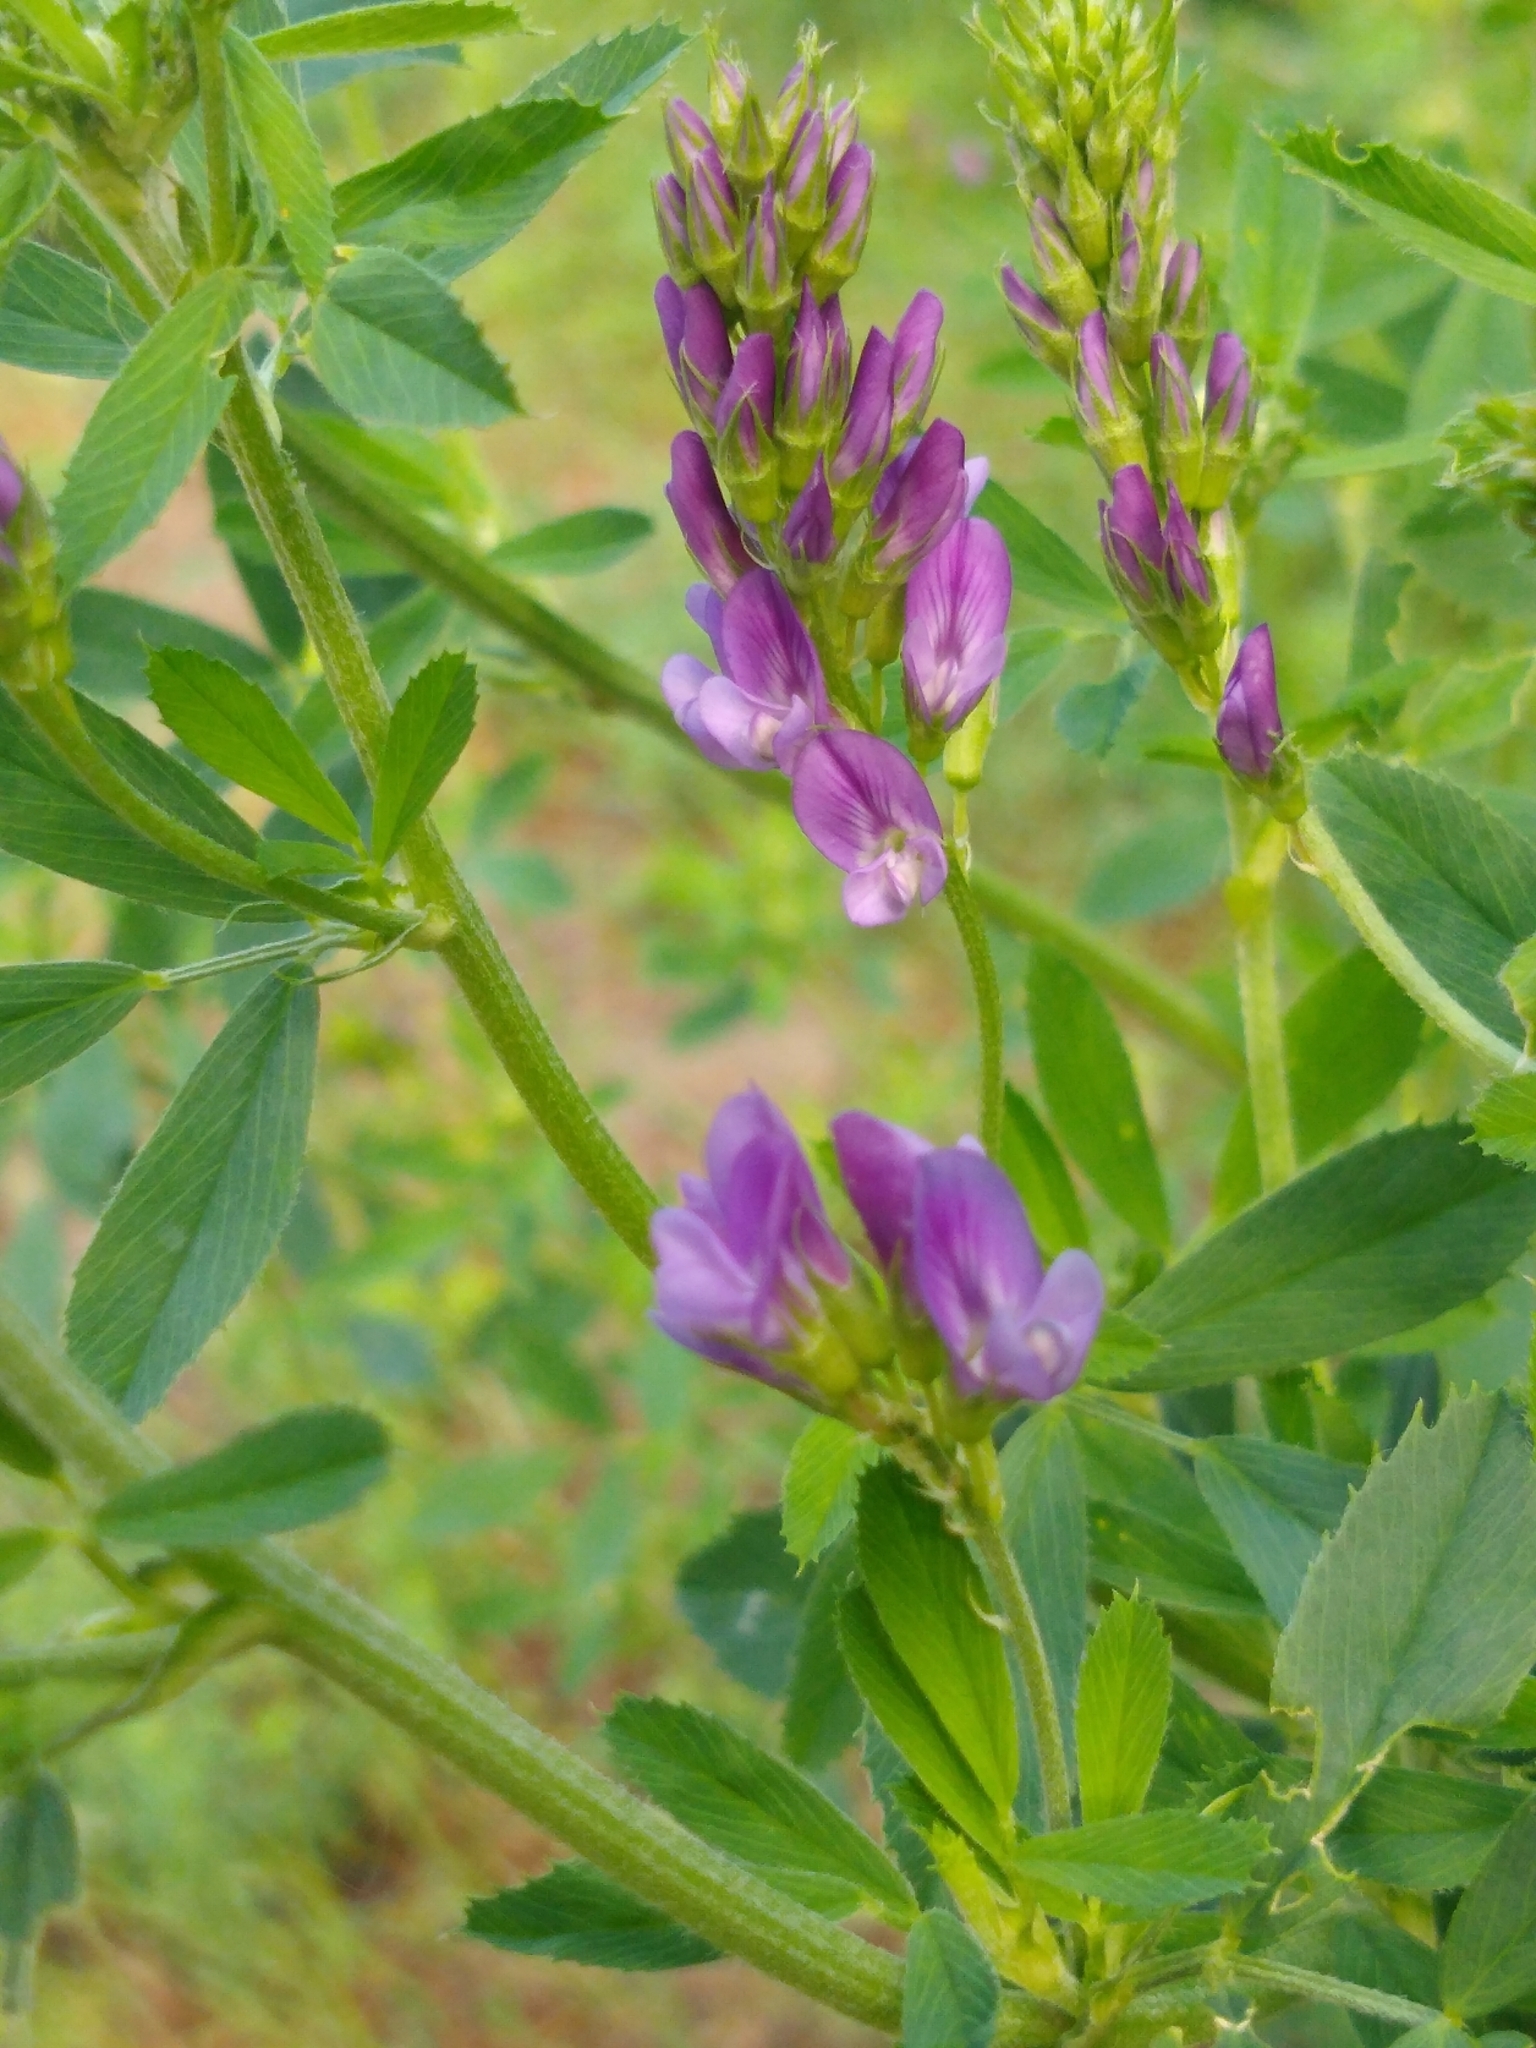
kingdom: Plantae
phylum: Tracheophyta
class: Magnoliopsida
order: Fabales
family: Fabaceae
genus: Medicago
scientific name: Medicago sativa
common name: Alfalfa
